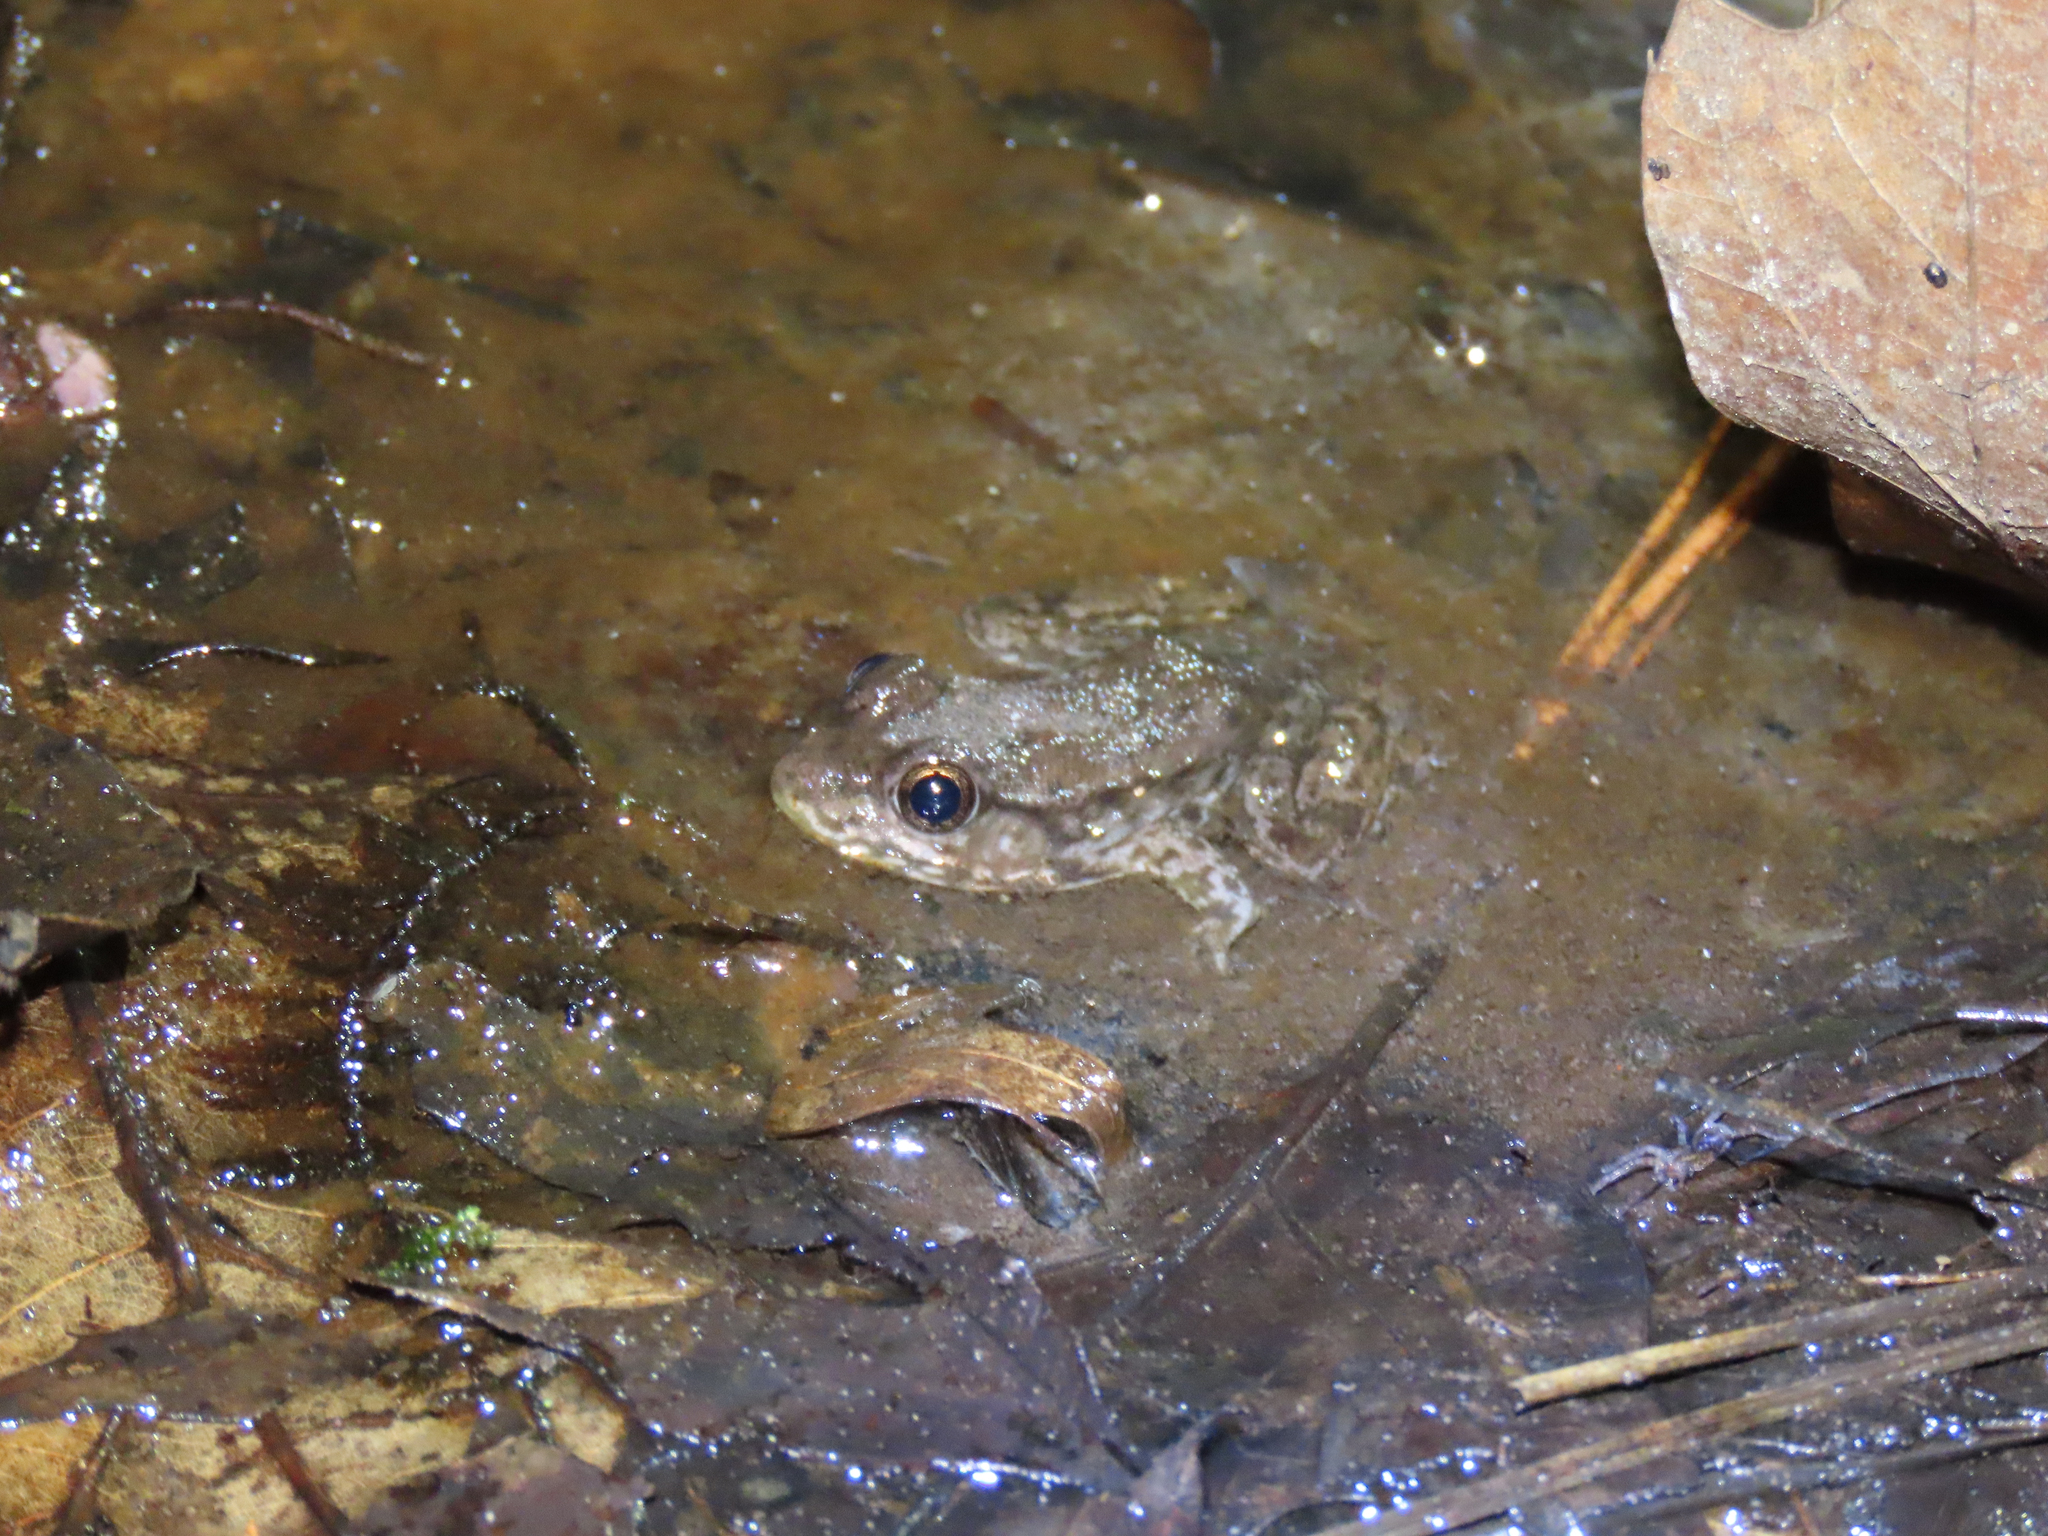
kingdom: Animalia
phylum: Chordata
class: Amphibia
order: Anura
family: Ranidae
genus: Lithobates
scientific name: Lithobates clamitans
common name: Green frog
